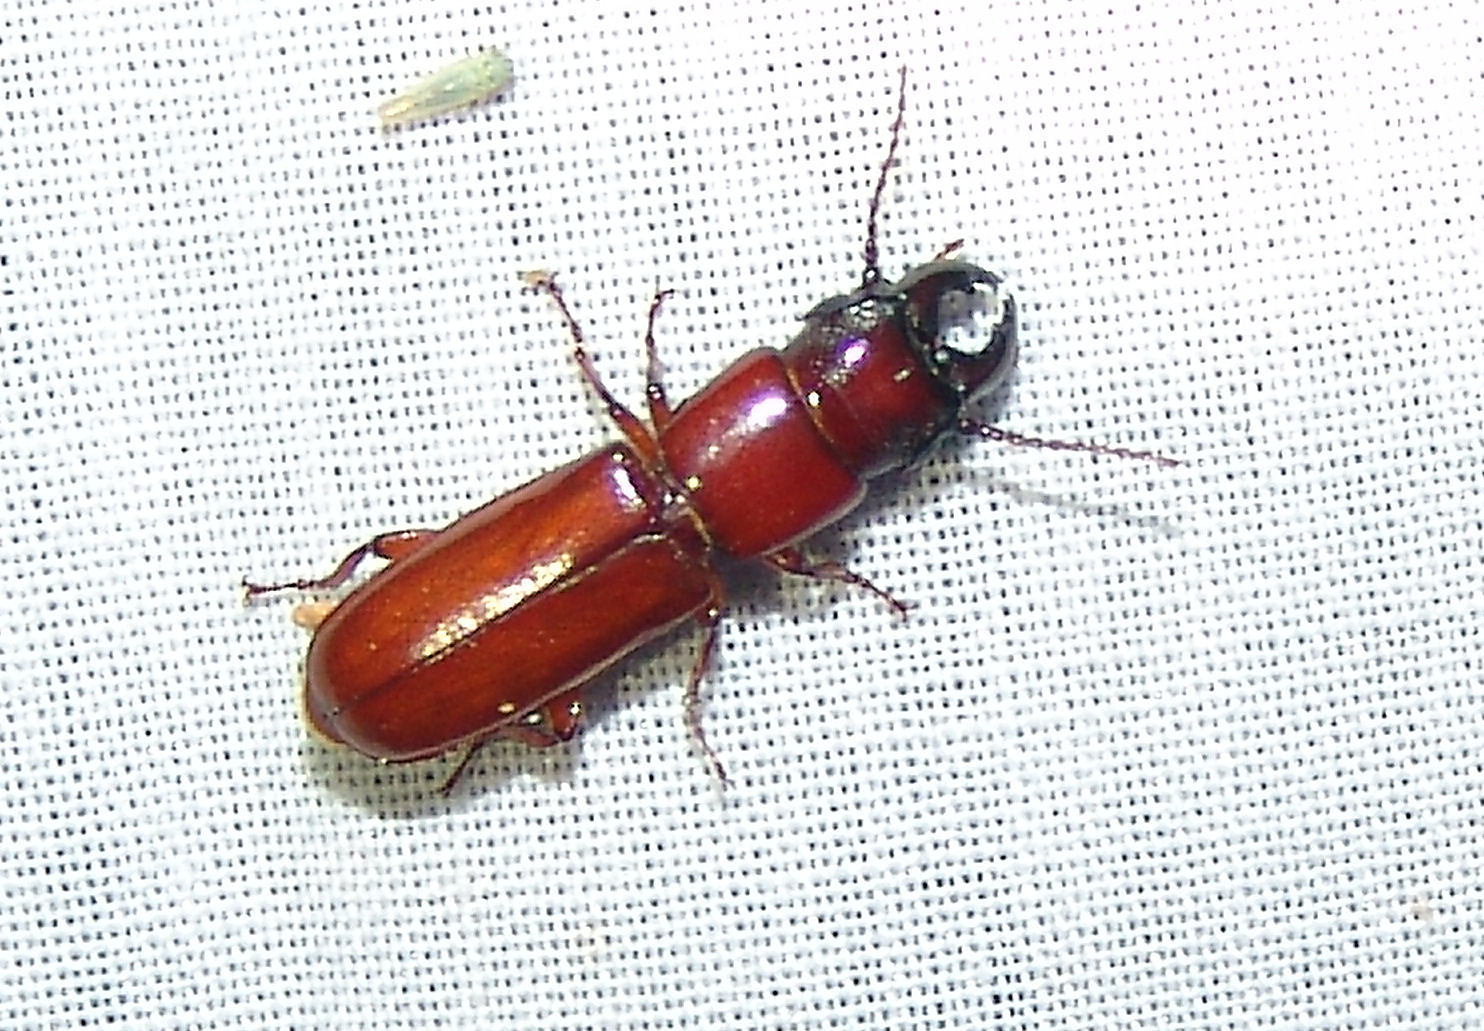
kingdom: Animalia
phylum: Arthropoda
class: Insecta
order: Coleoptera
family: Cerambycidae
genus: Parandra
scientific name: Parandra polita
